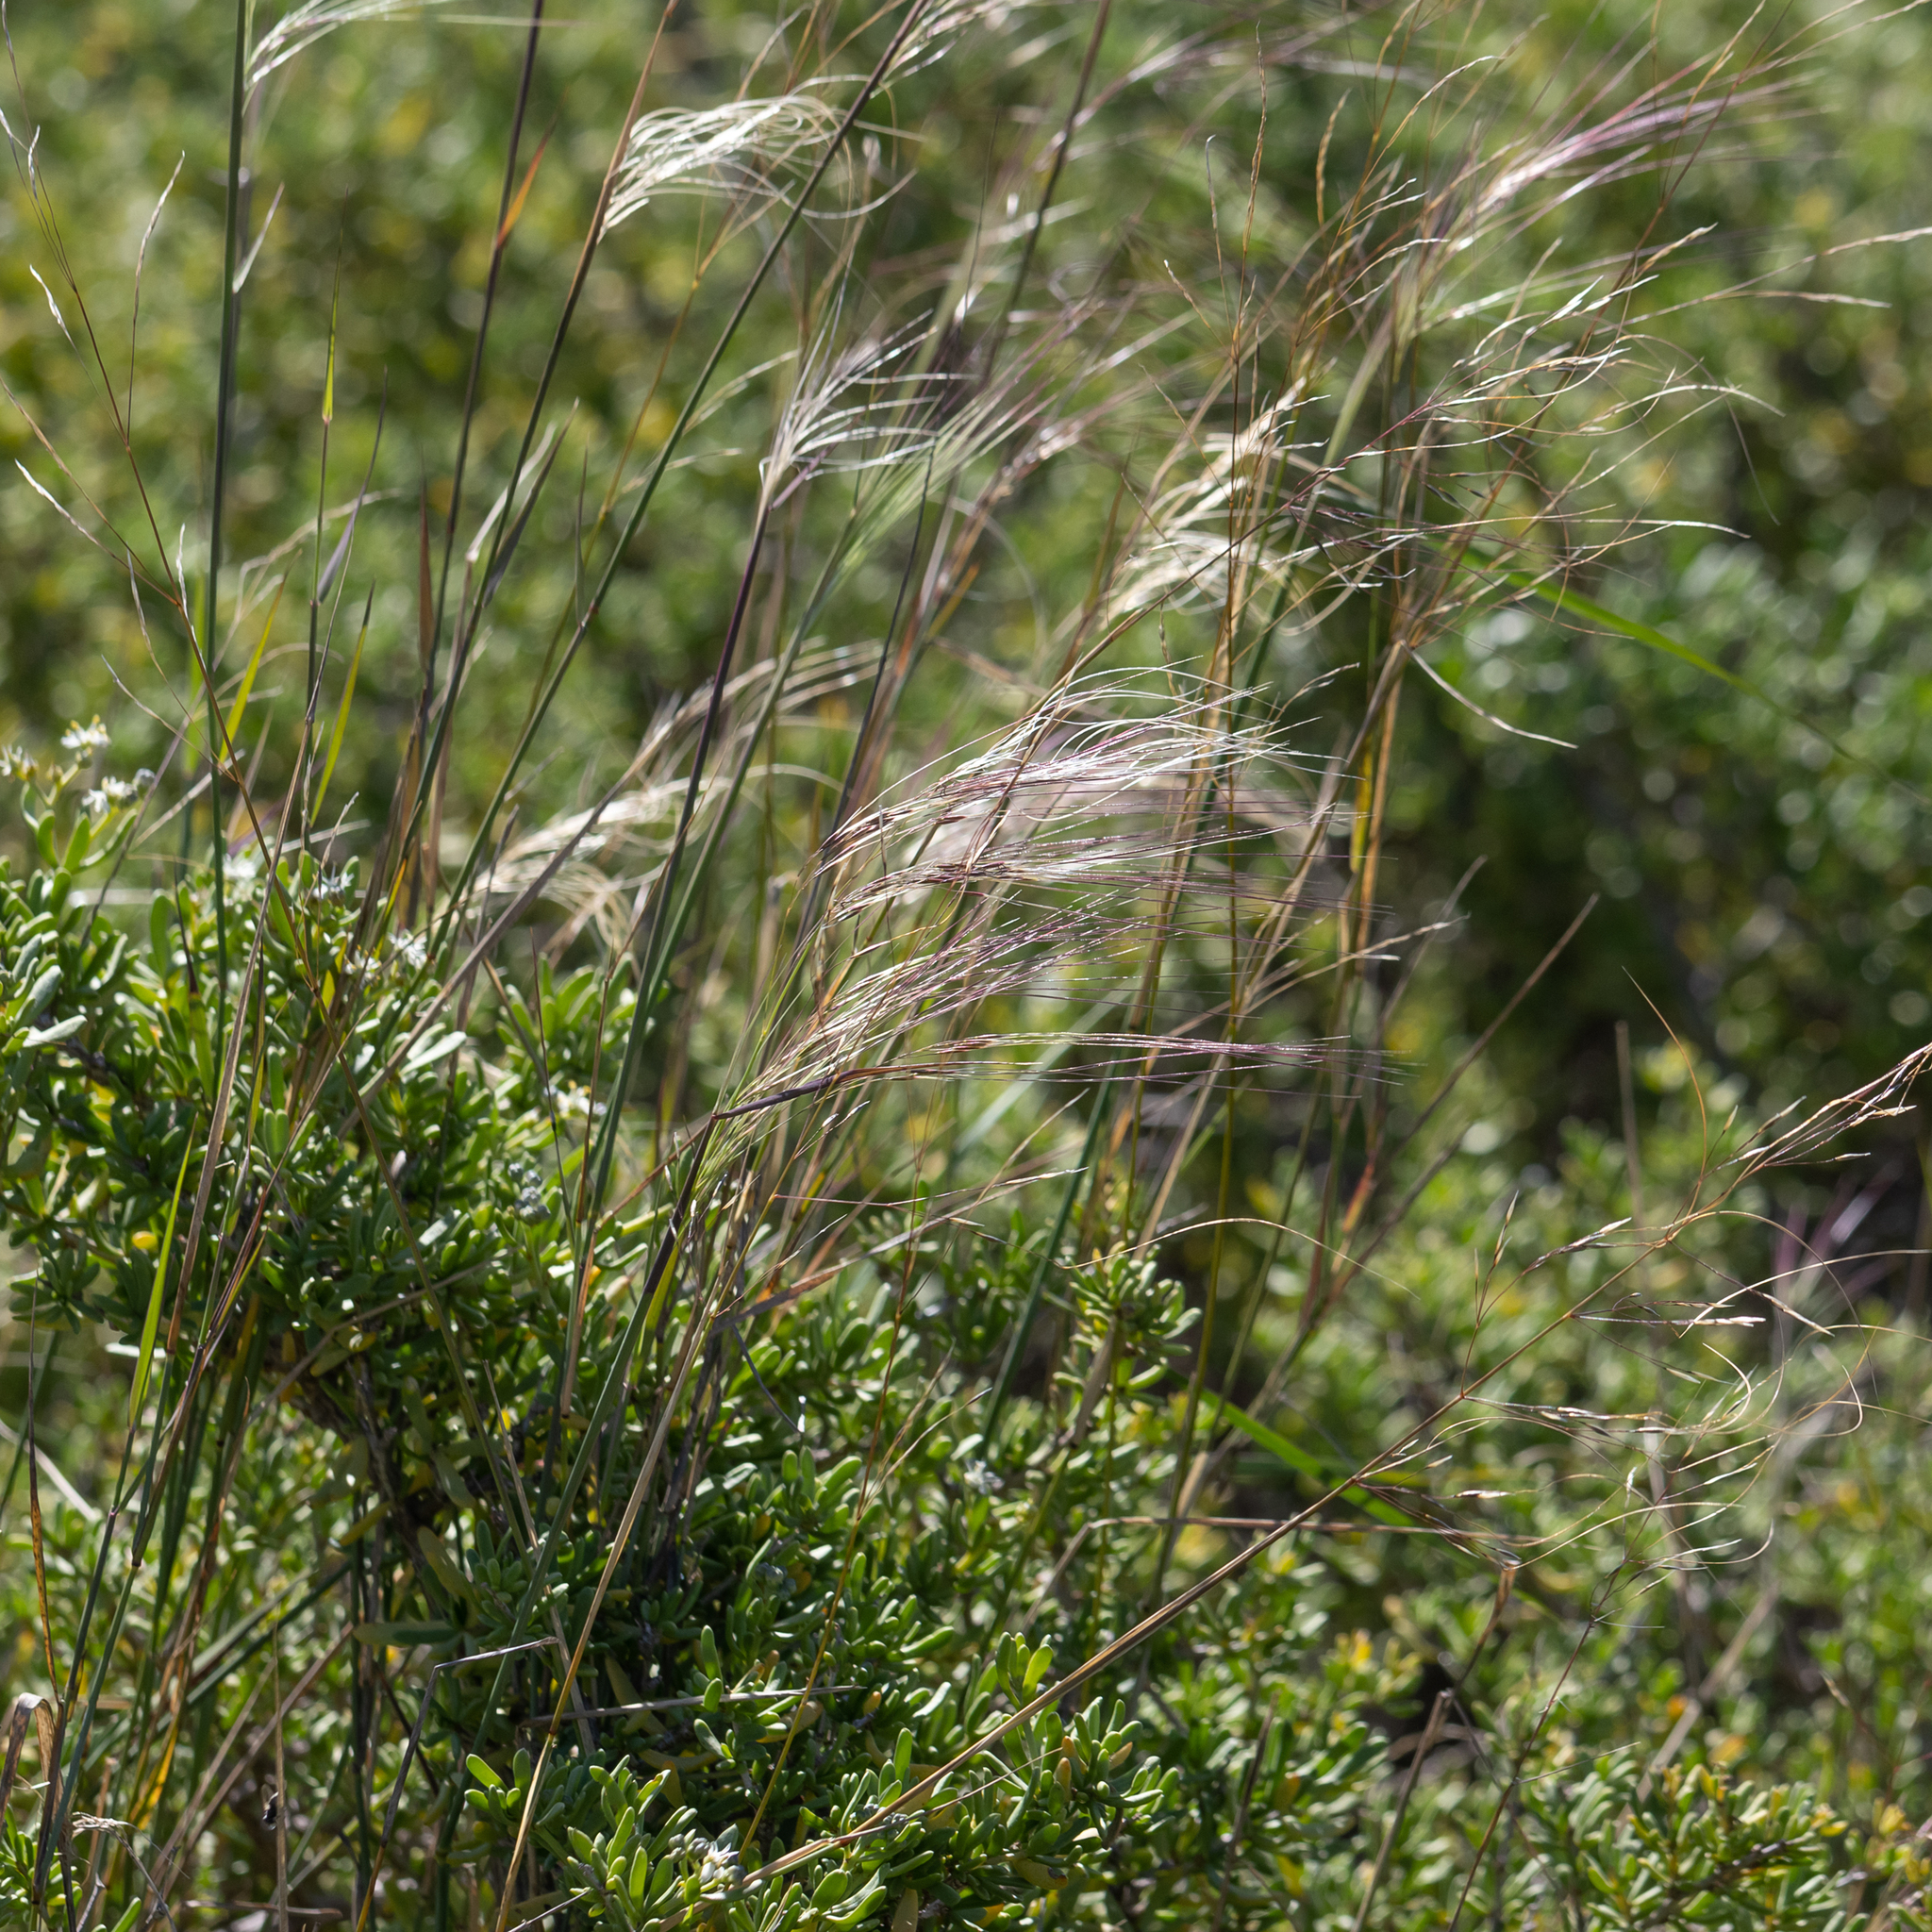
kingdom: Plantae
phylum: Tracheophyta
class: Liliopsida
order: Poales
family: Poaceae
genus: Austrostipa
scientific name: Austrostipa platychaeta
